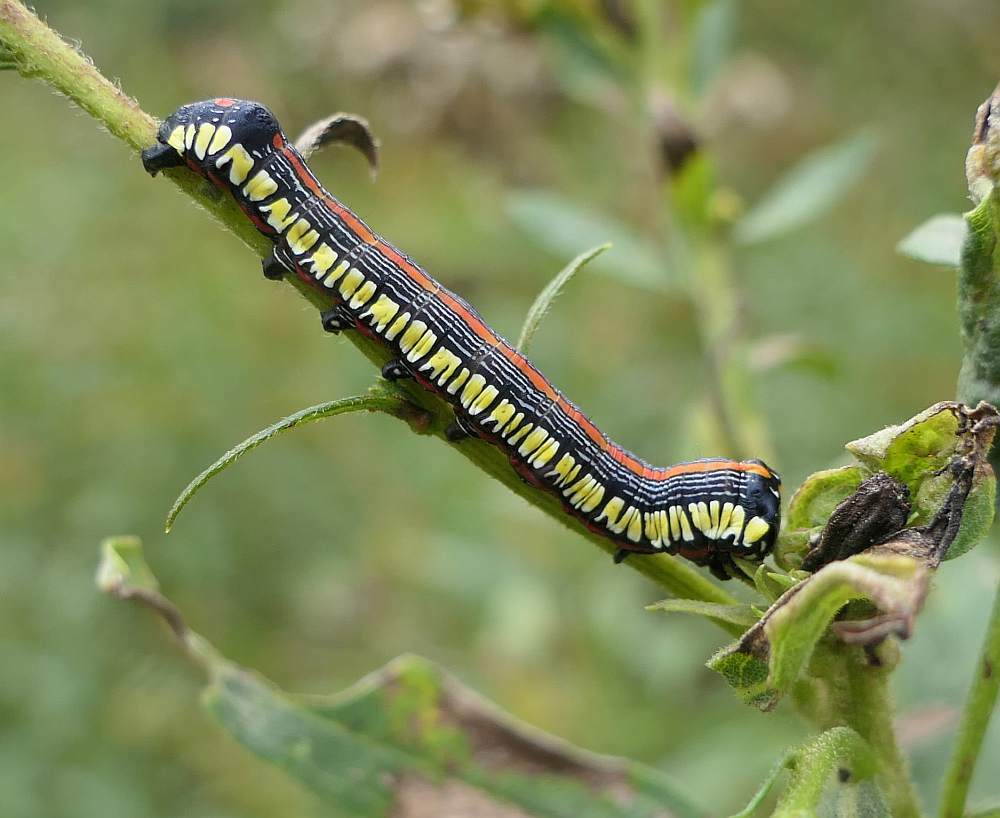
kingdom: Animalia
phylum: Arthropoda
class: Insecta
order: Lepidoptera
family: Noctuidae
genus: Cucullia
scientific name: Cucullia convexipennis
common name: Brown-hooded owlet
